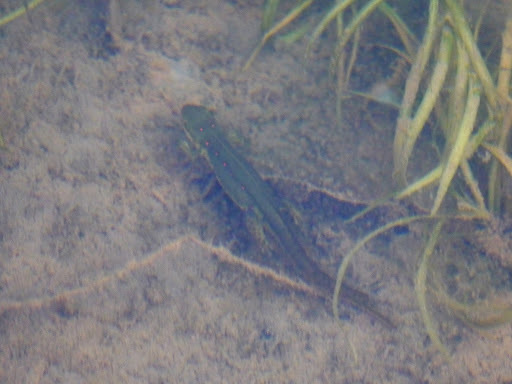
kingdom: Animalia
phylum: Chordata
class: Amphibia
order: Caudata
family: Salamandridae
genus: Notophthalmus
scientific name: Notophthalmus viridescens
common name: Eastern newt
